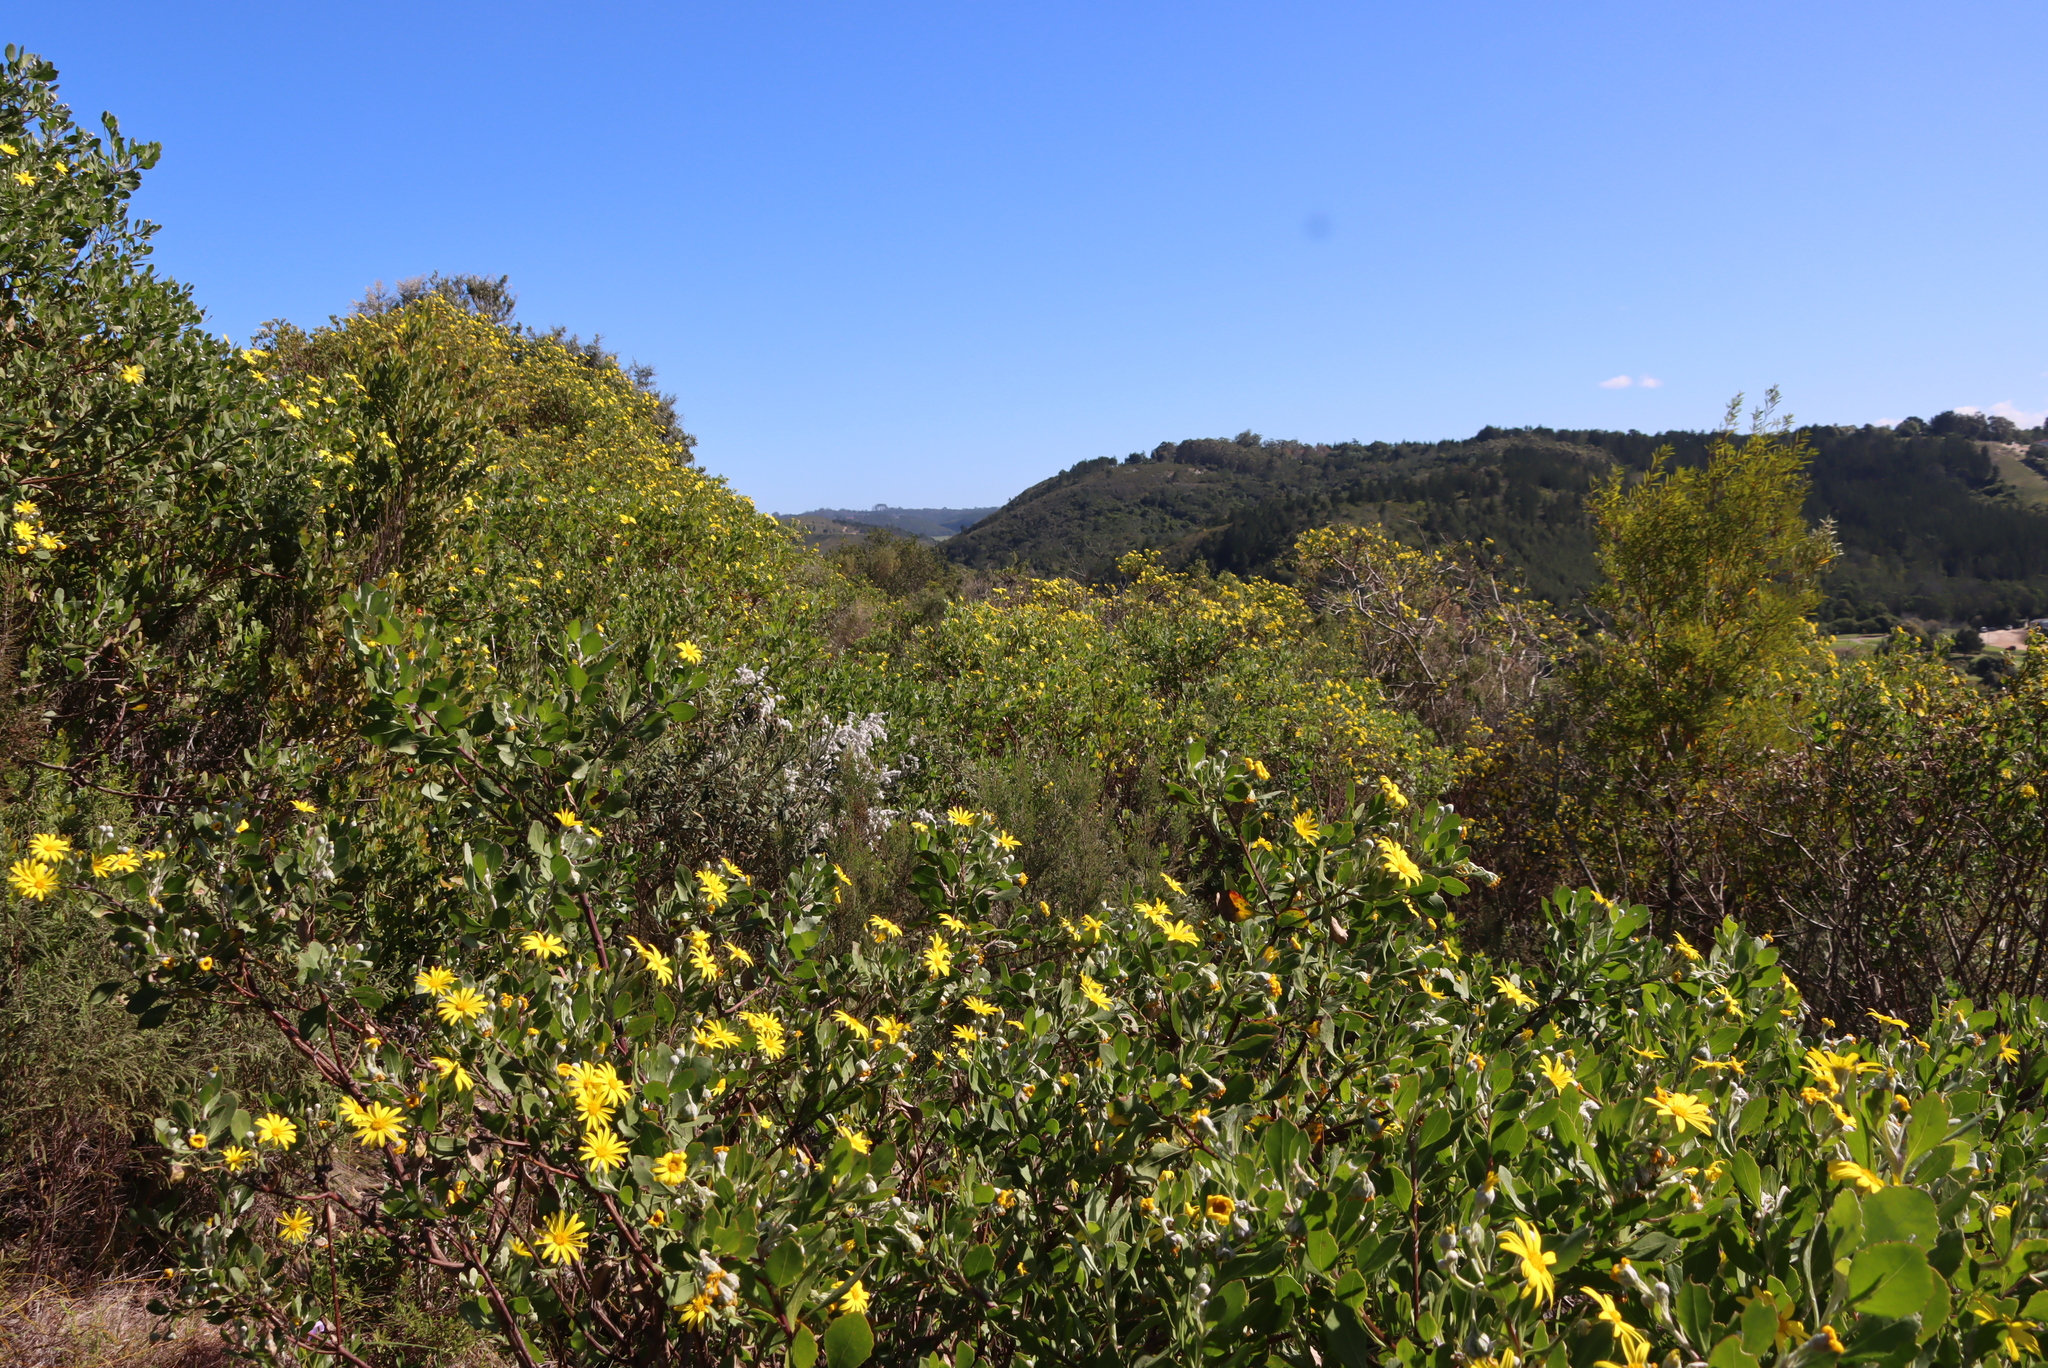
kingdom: Plantae
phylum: Tracheophyta
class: Magnoliopsida
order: Asterales
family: Asteraceae
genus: Osteospermum
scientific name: Osteospermum moniliferum
